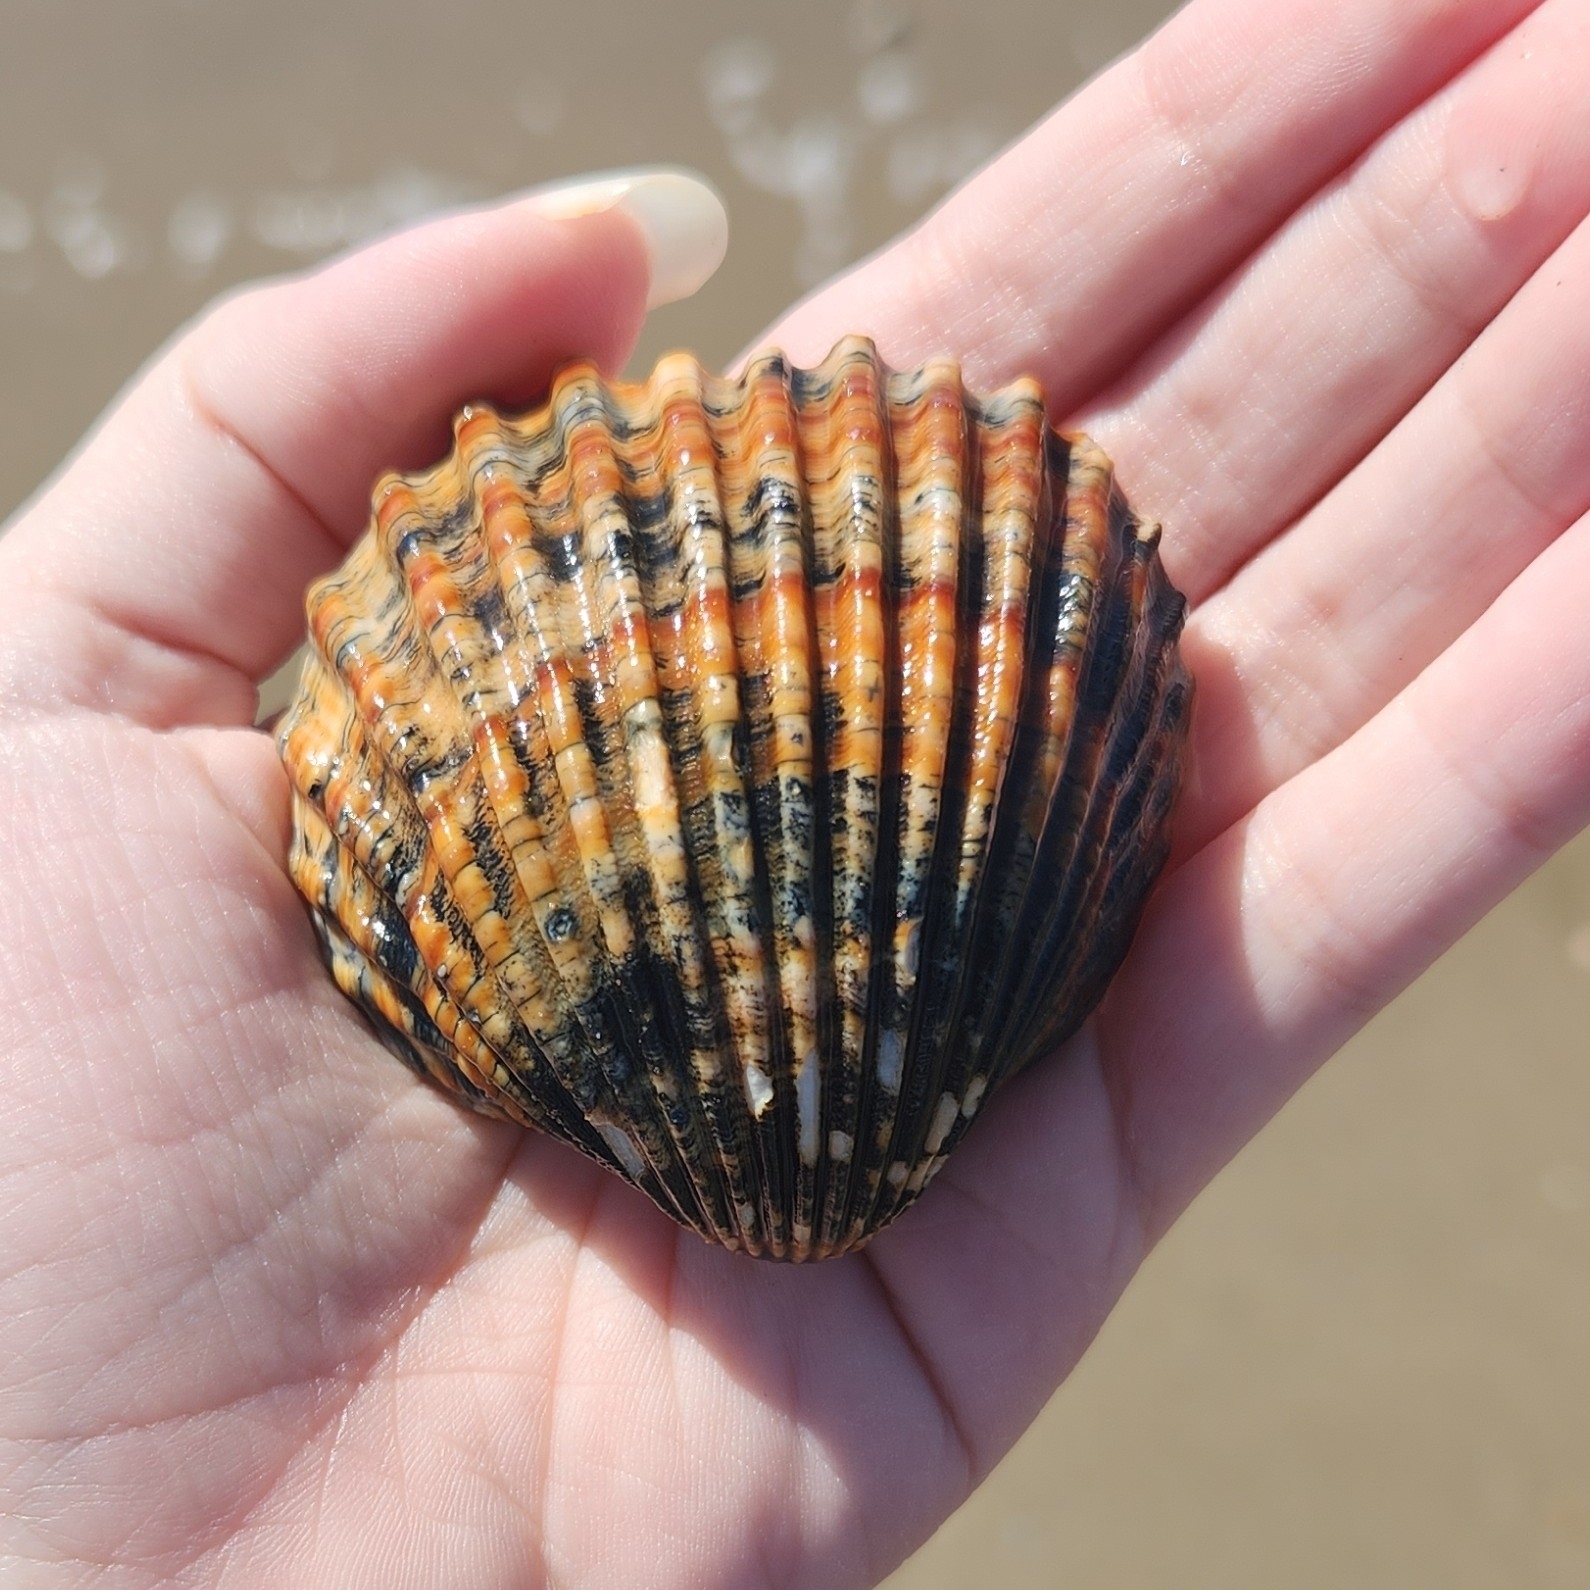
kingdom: Animalia
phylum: Mollusca
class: Bivalvia
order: Cardiida
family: Cardiidae
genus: Acanthocardia
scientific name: Acanthocardia tuberculata
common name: Rough cockle
